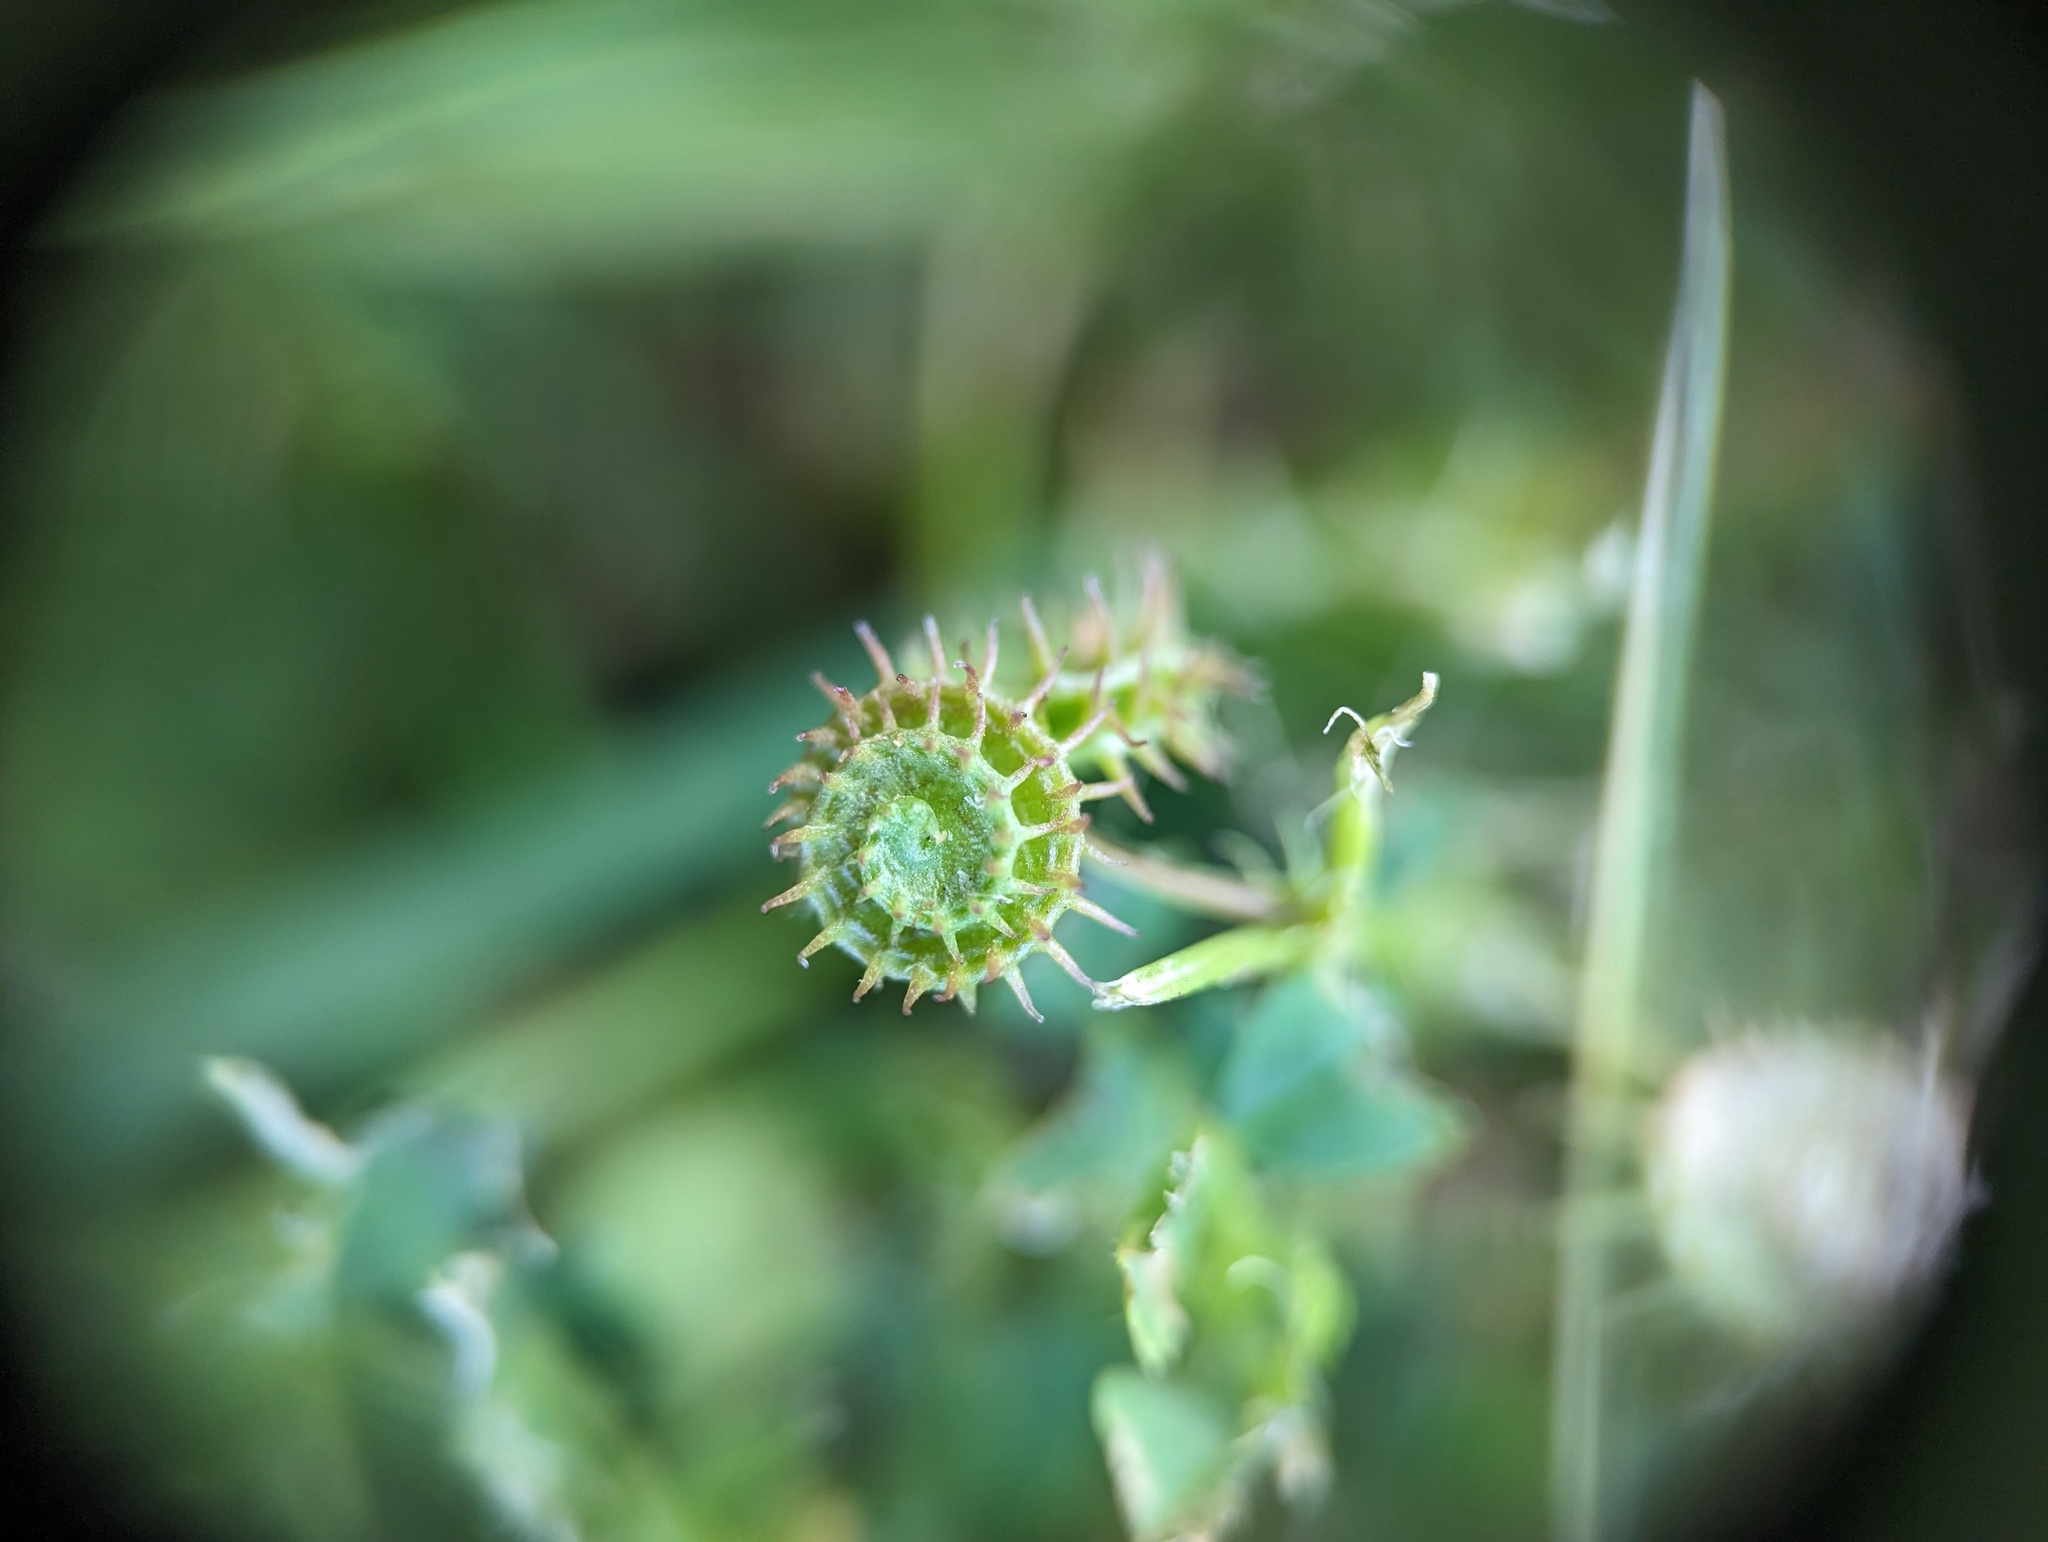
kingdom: Plantae
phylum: Tracheophyta
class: Magnoliopsida
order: Fabales
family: Fabaceae
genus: Medicago
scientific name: Medicago polymorpha
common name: Burclover
